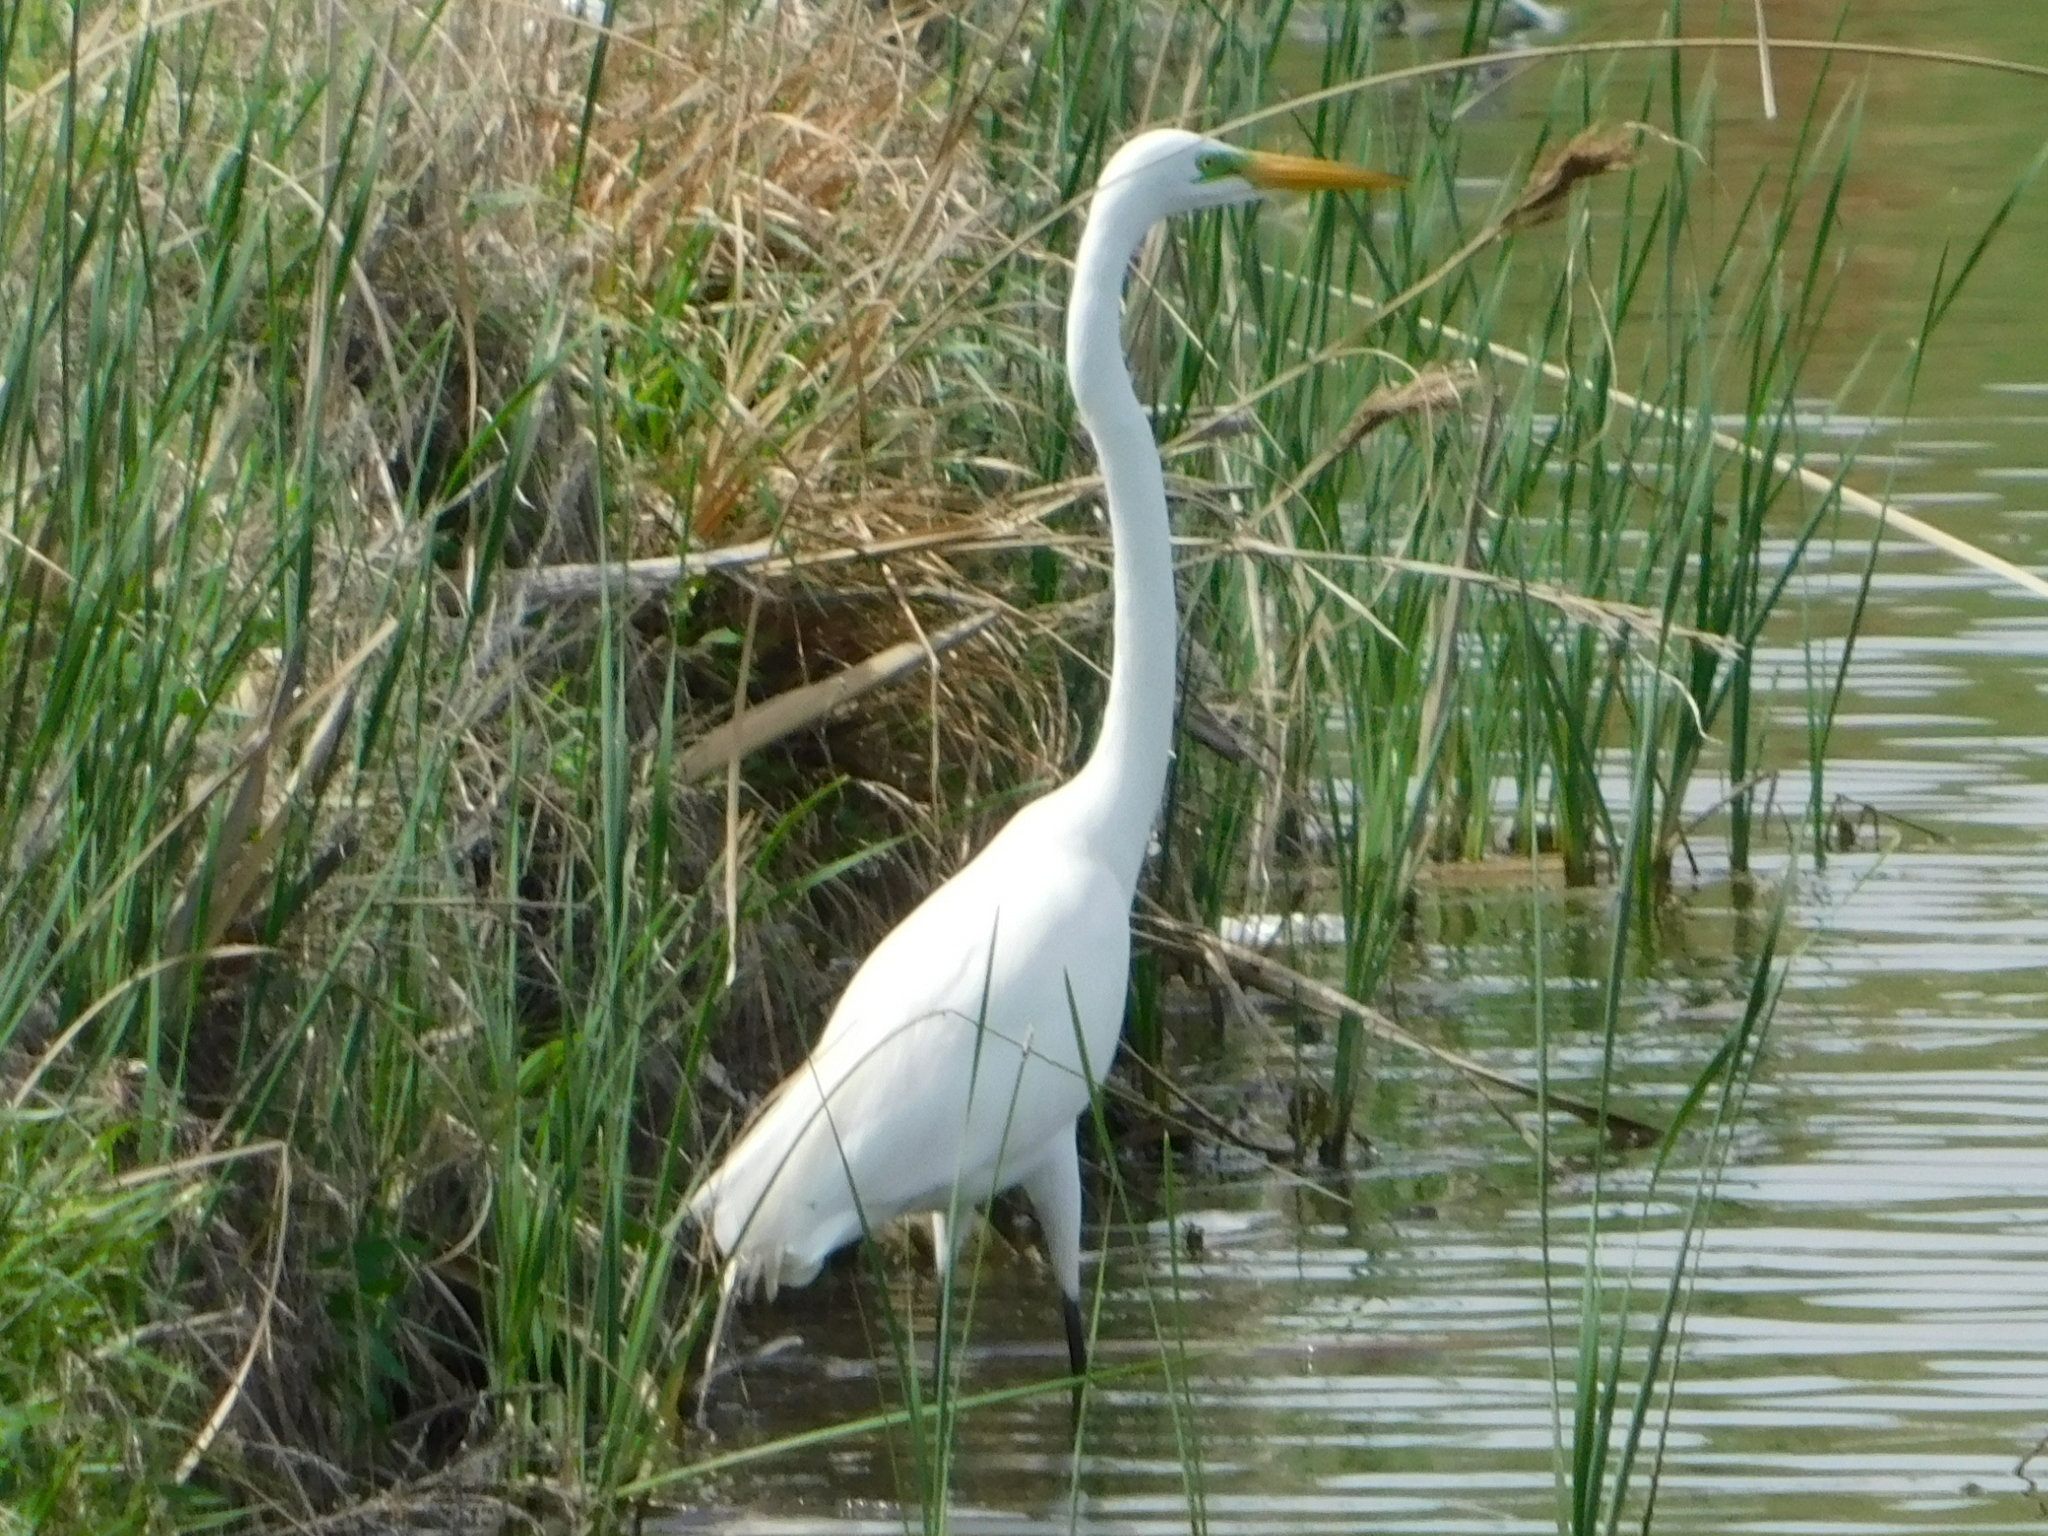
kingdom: Animalia
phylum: Chordata
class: Aves
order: Pelecaniformes
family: Ardeidae
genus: Ardea
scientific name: Ardea alba
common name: Great egret
